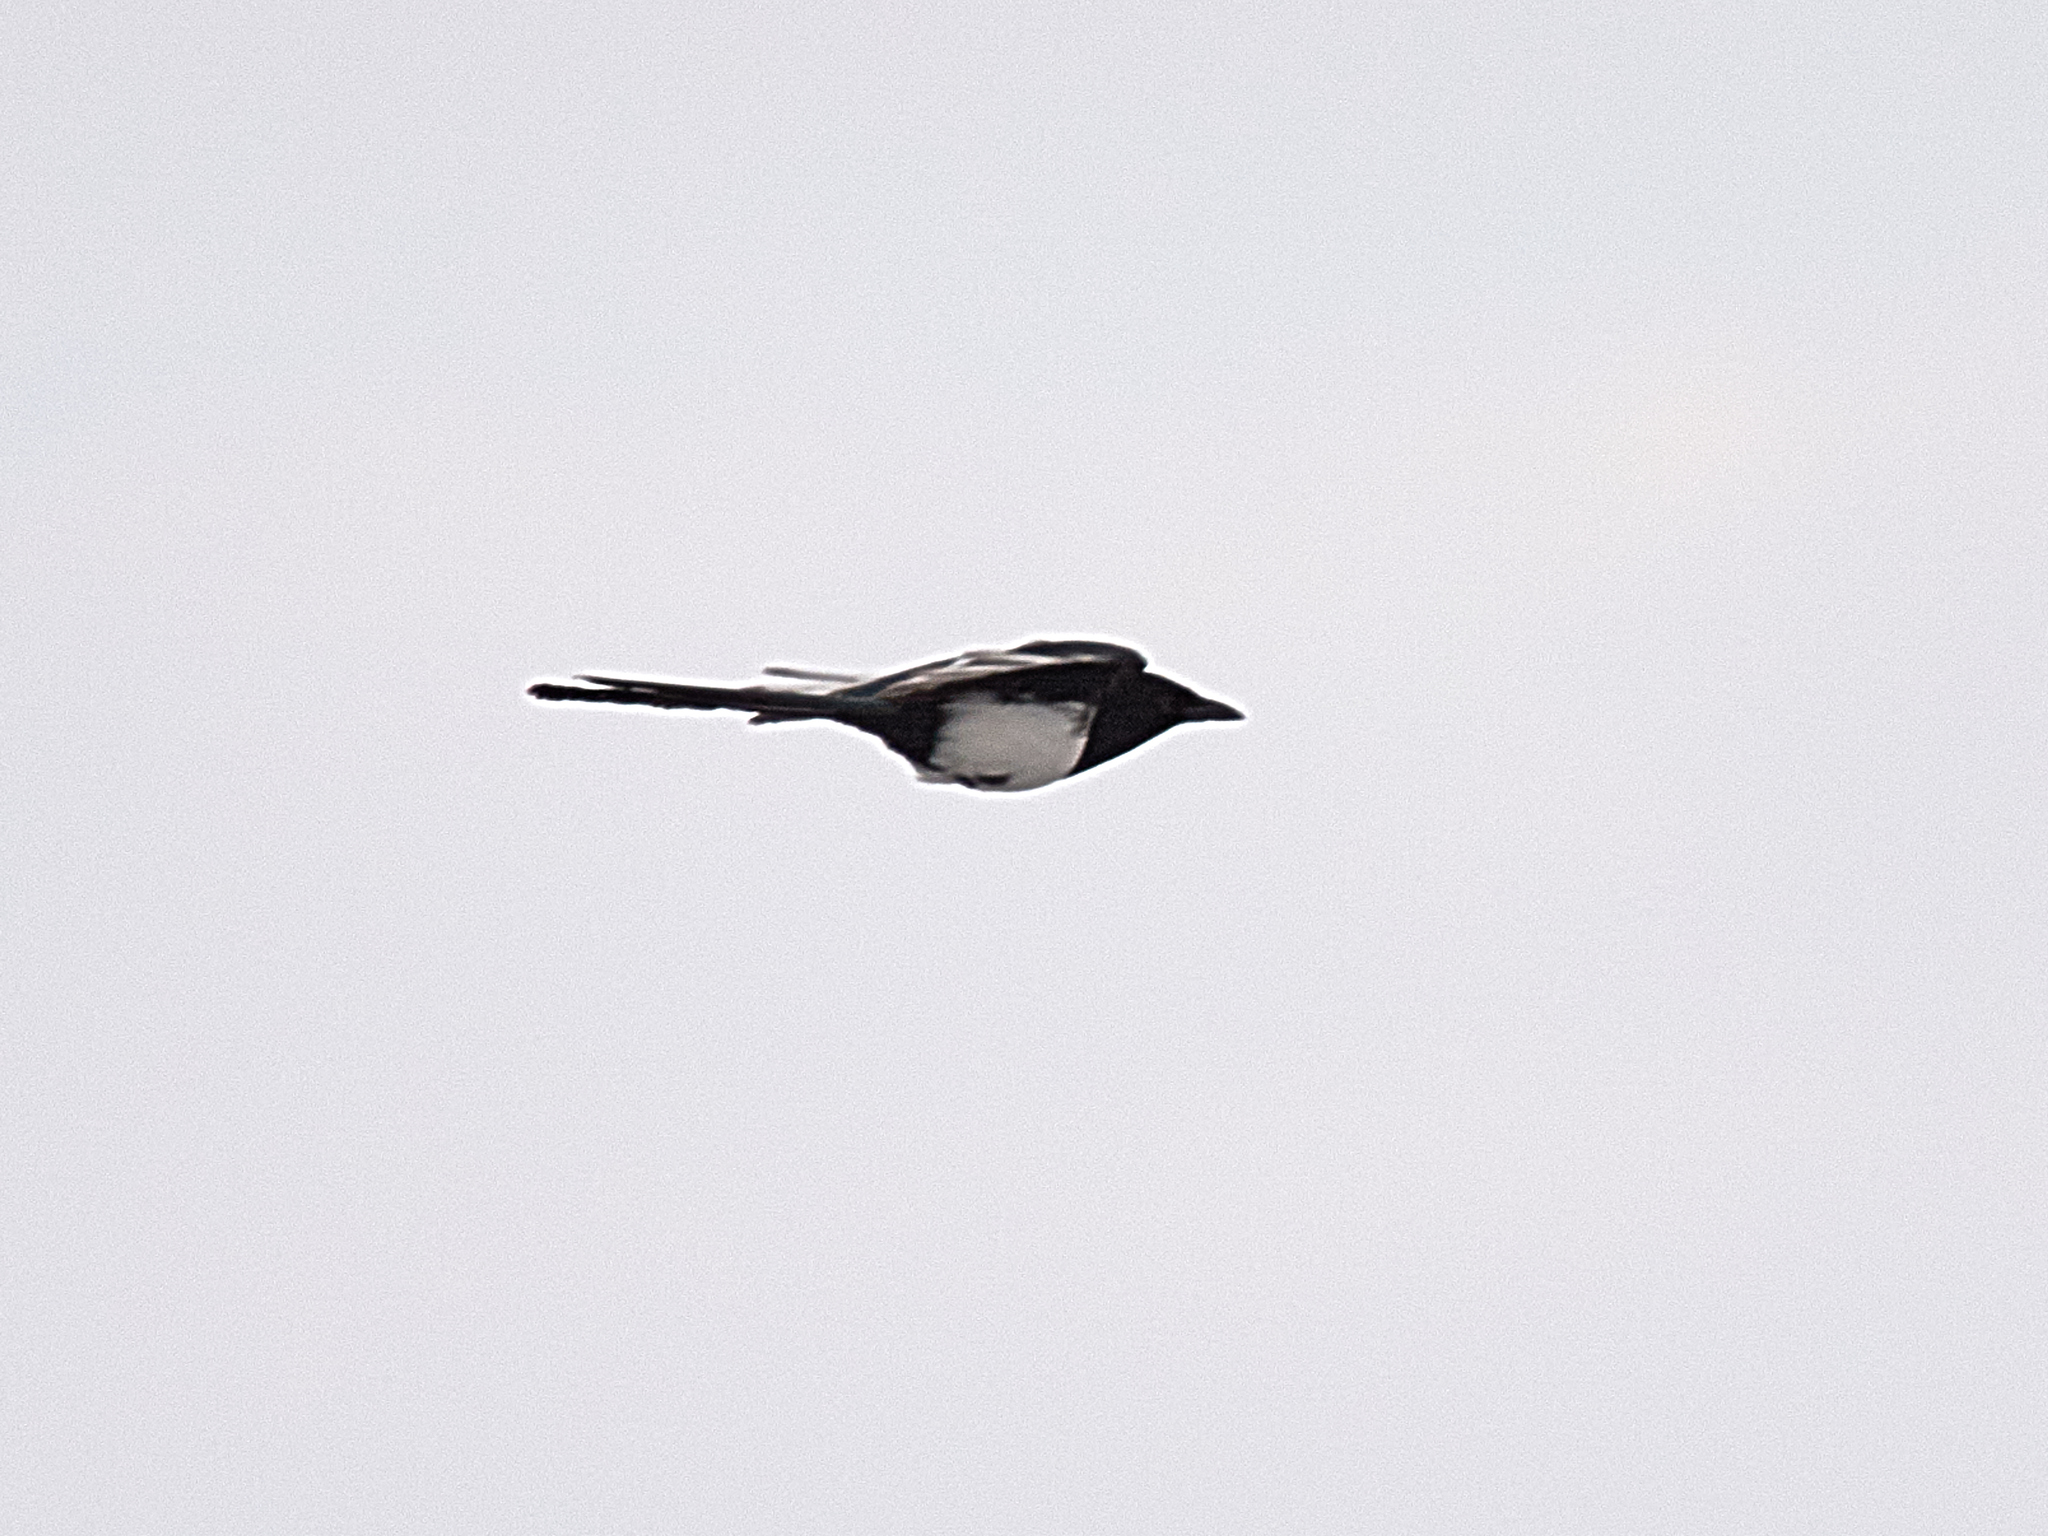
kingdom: Animalia
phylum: Chordata
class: Aves
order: Passeriformes
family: Corvidae
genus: Pica
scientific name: Pica pica
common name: Eurasian magpie
